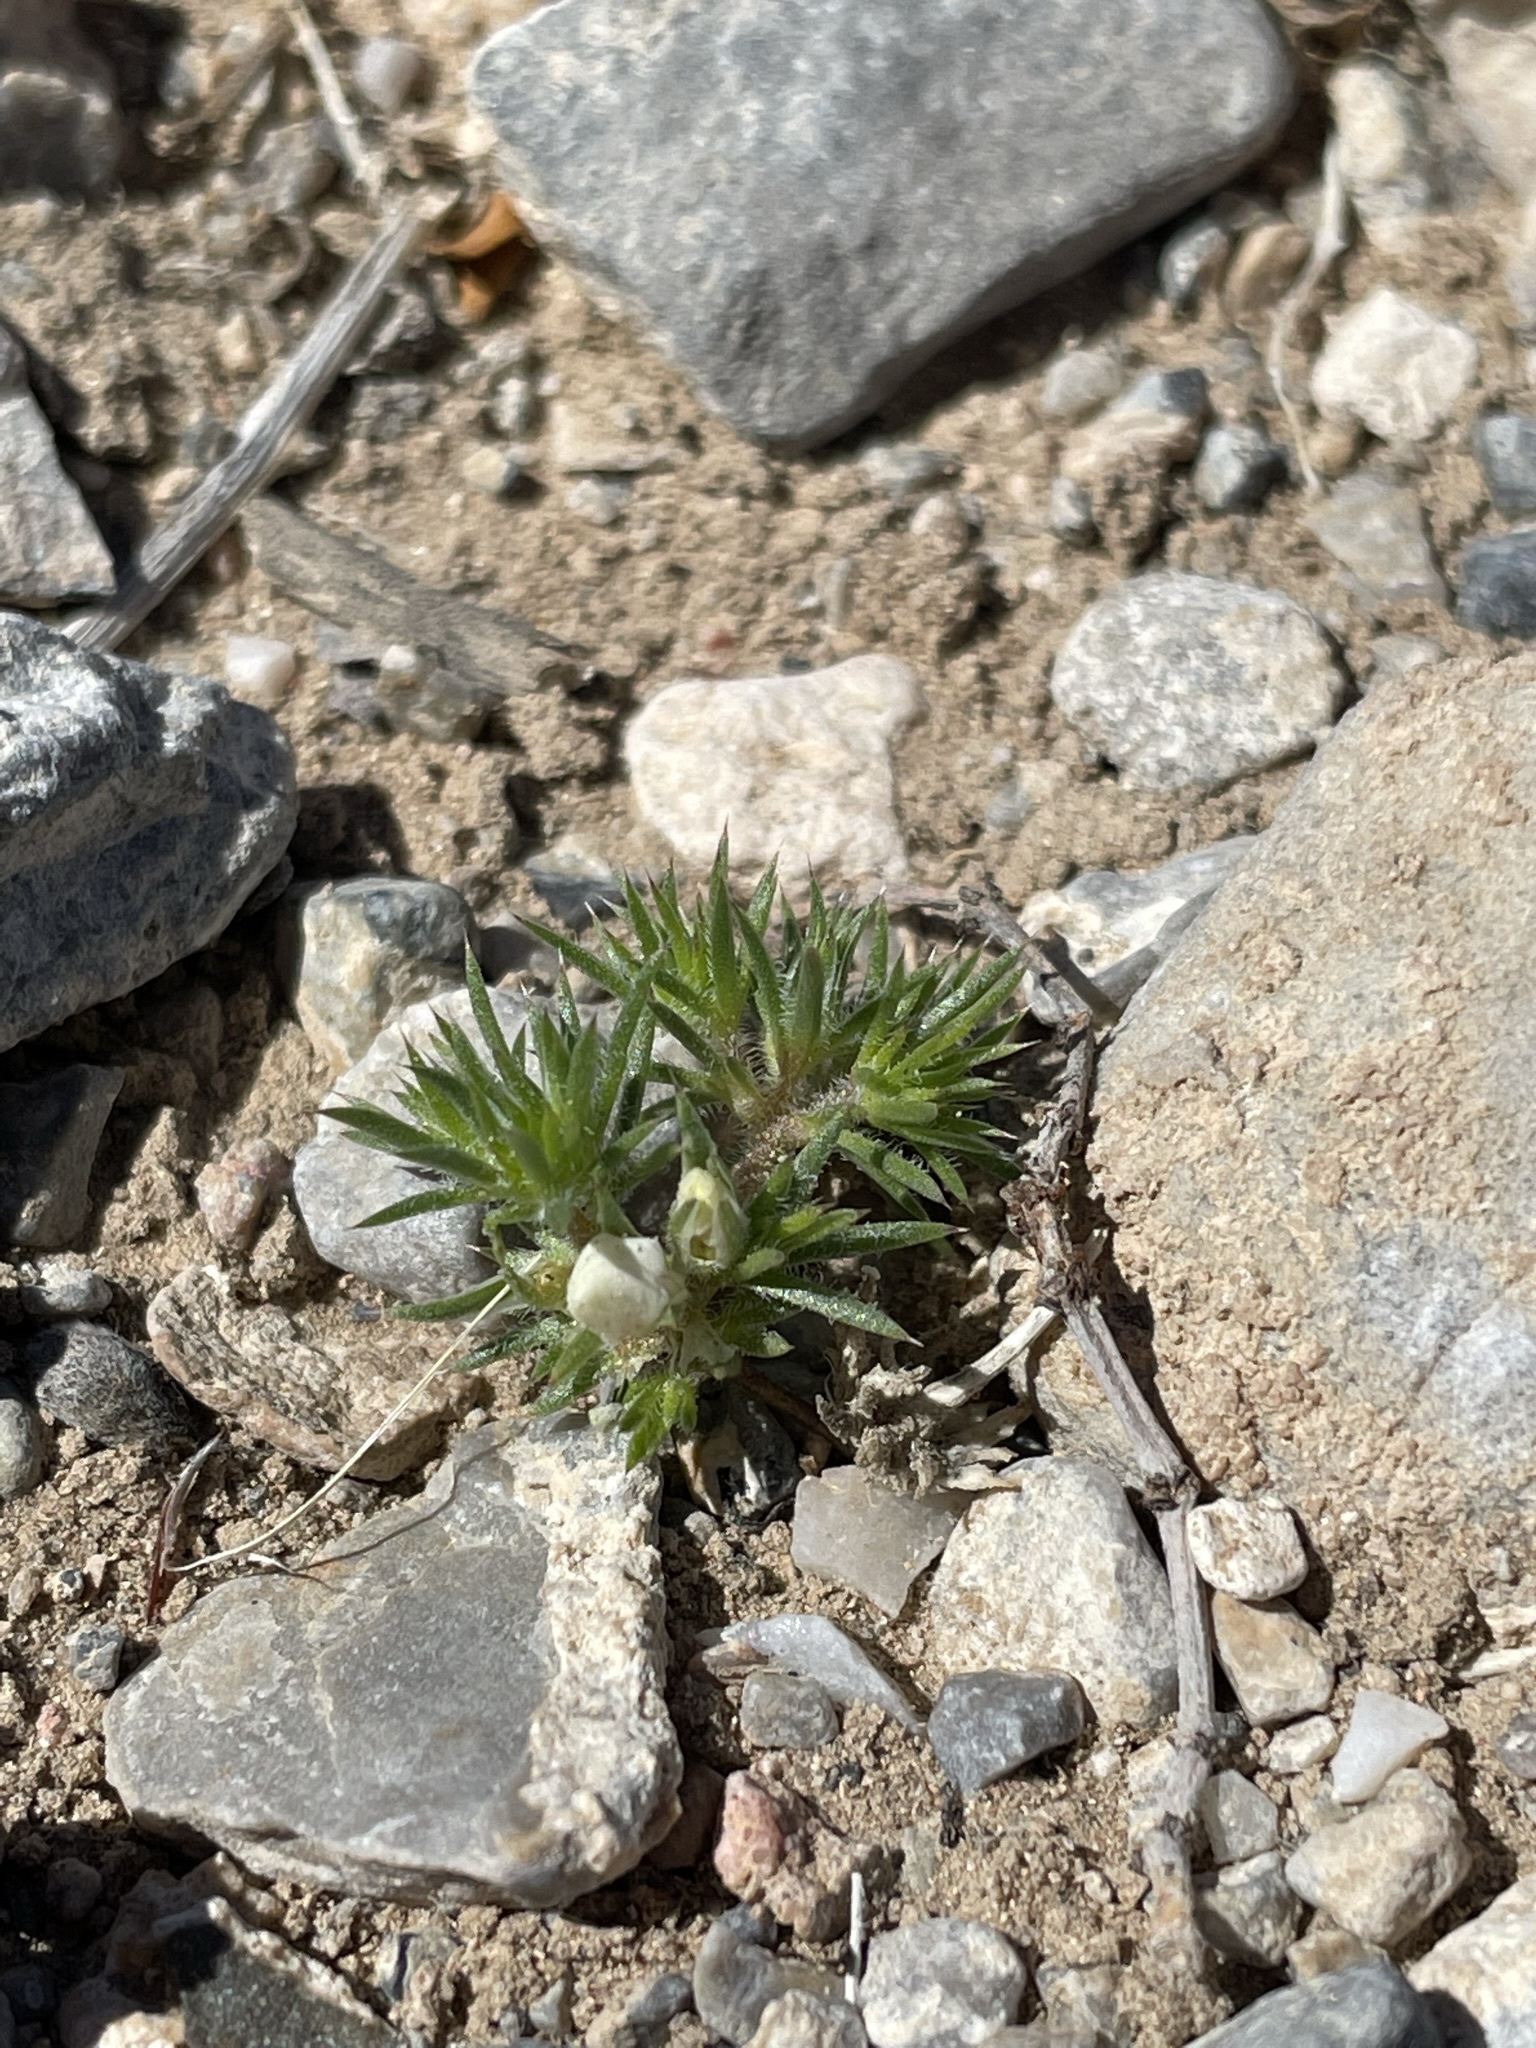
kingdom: Plantae
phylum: Tracheophyta
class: Magnoliopsida
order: Ericales
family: Polemoniaceae
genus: Linanthus
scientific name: Linanthus demissus
